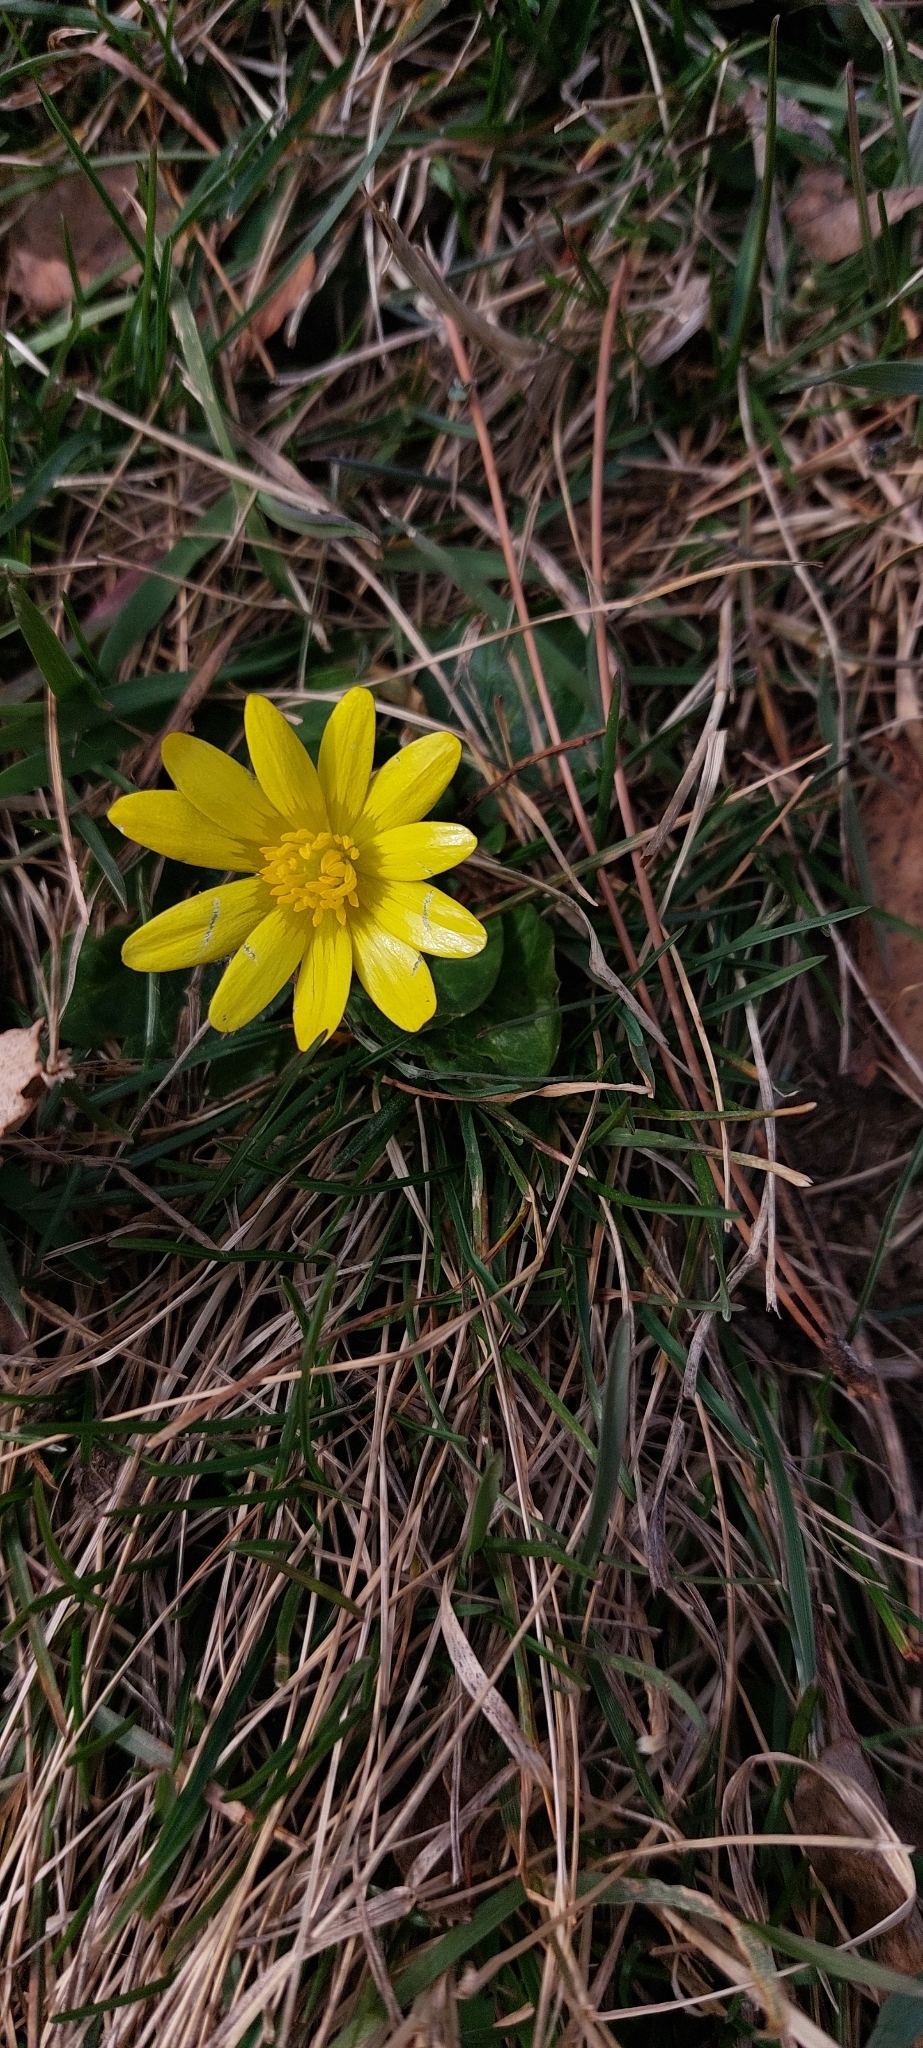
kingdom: Plantae
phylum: Tracheophyta
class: Magnoliopsida
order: Ranunculales
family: Ranunculaceae
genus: Ficaria
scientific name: Ficaria verna
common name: Lesser celandine
